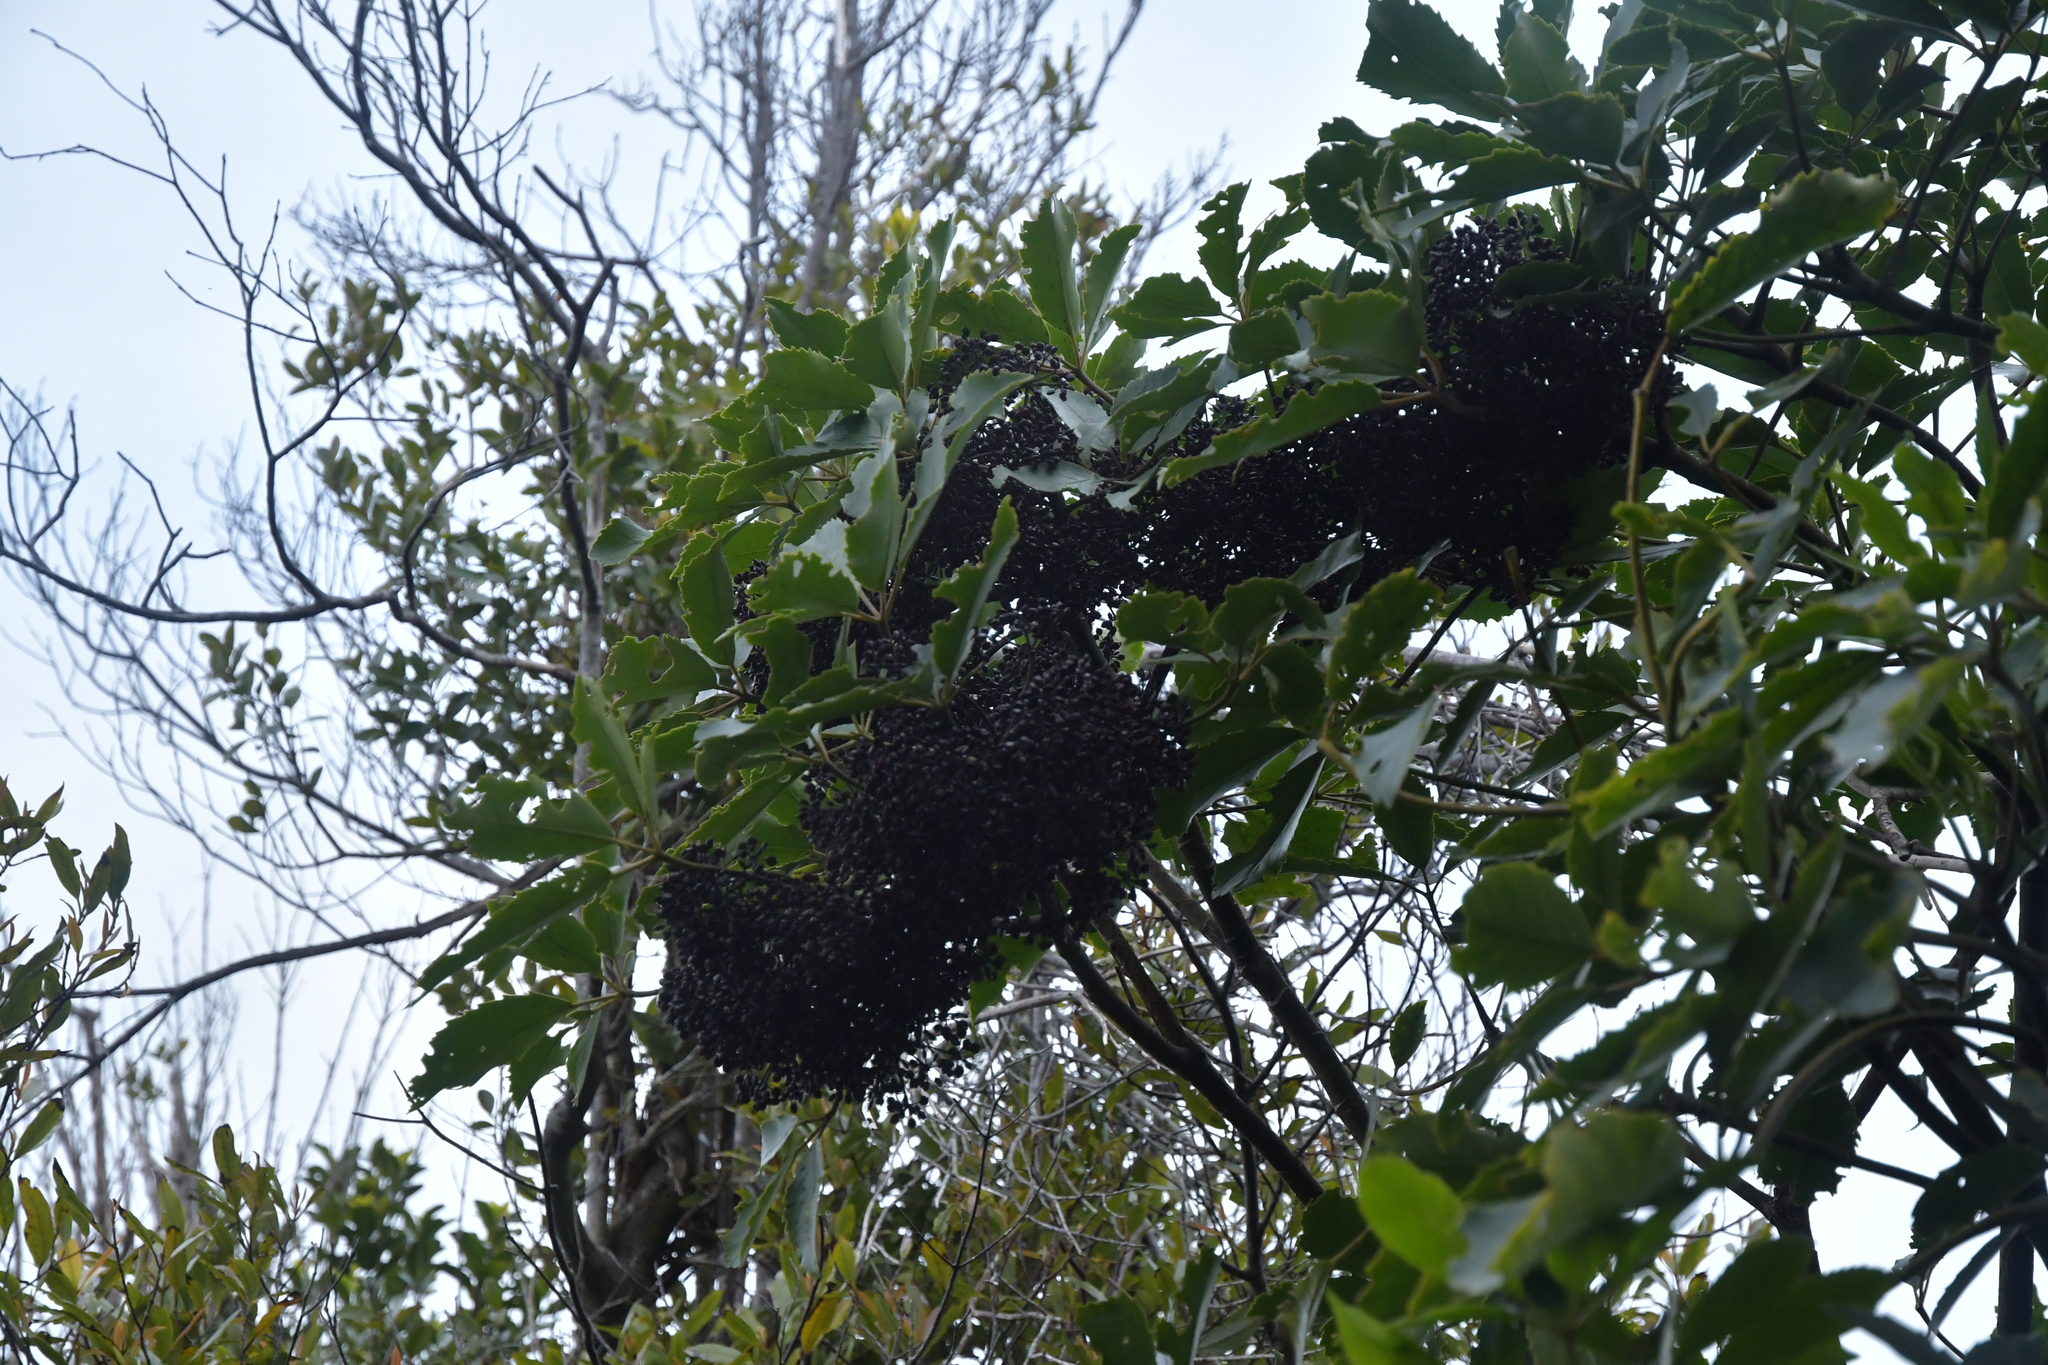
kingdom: Plantae
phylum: Tracheophyta
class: Magnoliopsida
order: Apiales
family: Araliaceae
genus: Neopanax
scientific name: Neopanax arboreus
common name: Five-fingers
